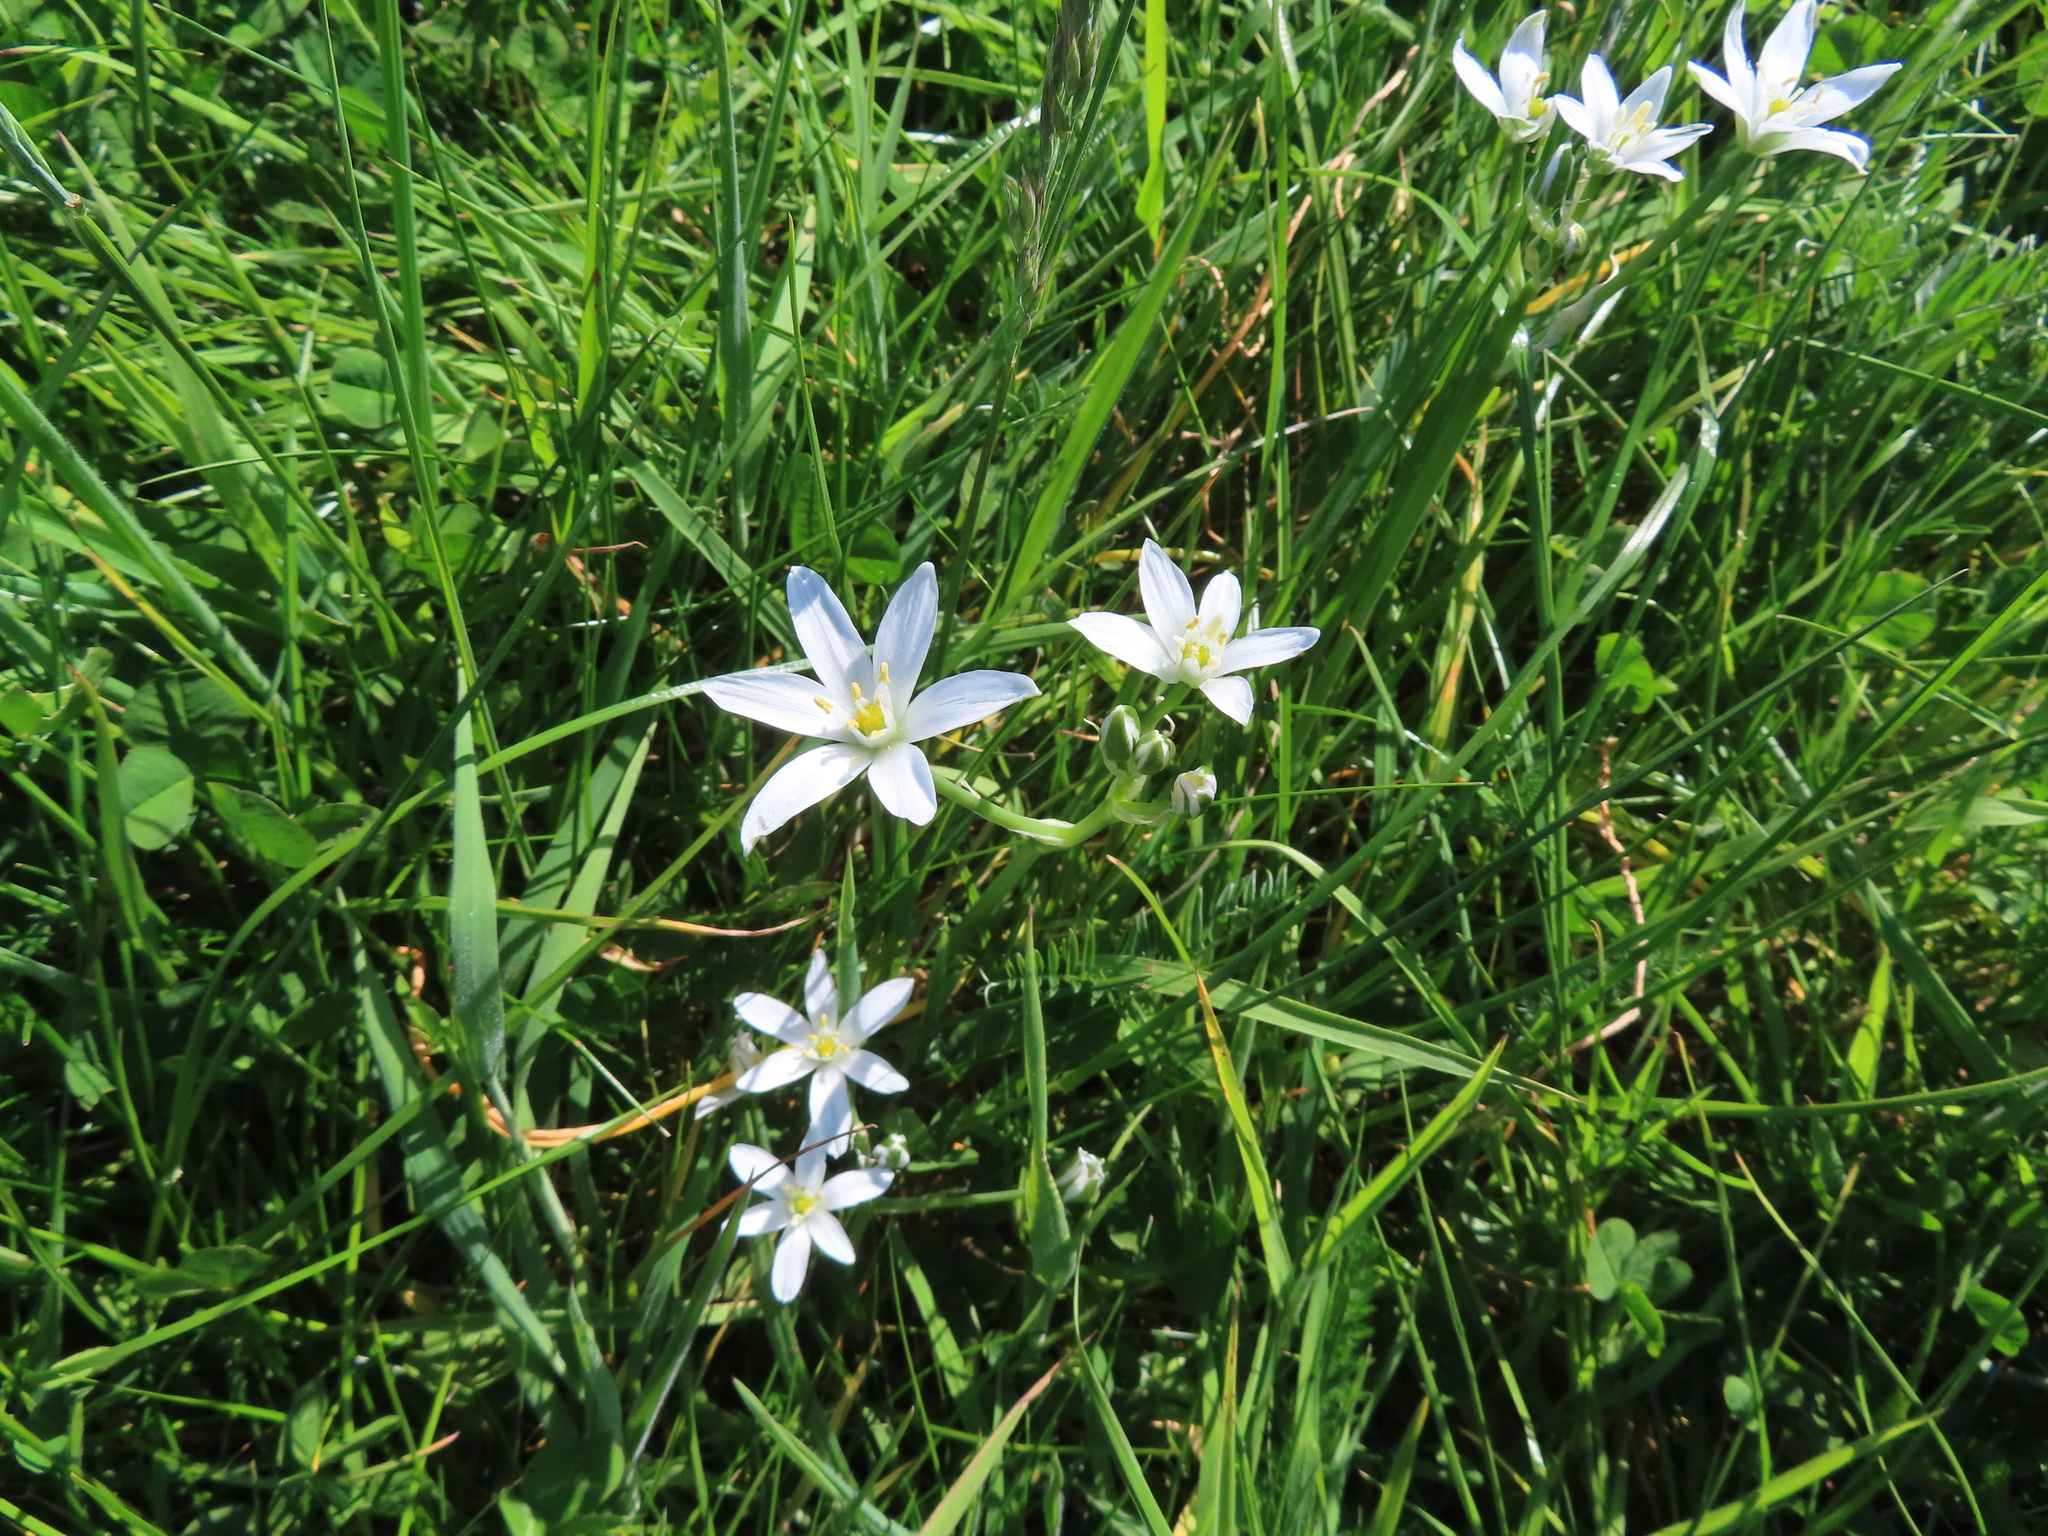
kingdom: Plantae
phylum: Tracheophyta
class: Liliopsida
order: Asparagales
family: Asparagaceae
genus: Ornithogalum
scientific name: Ornithogalum umbellatum
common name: Garden star-of-bethlehem
